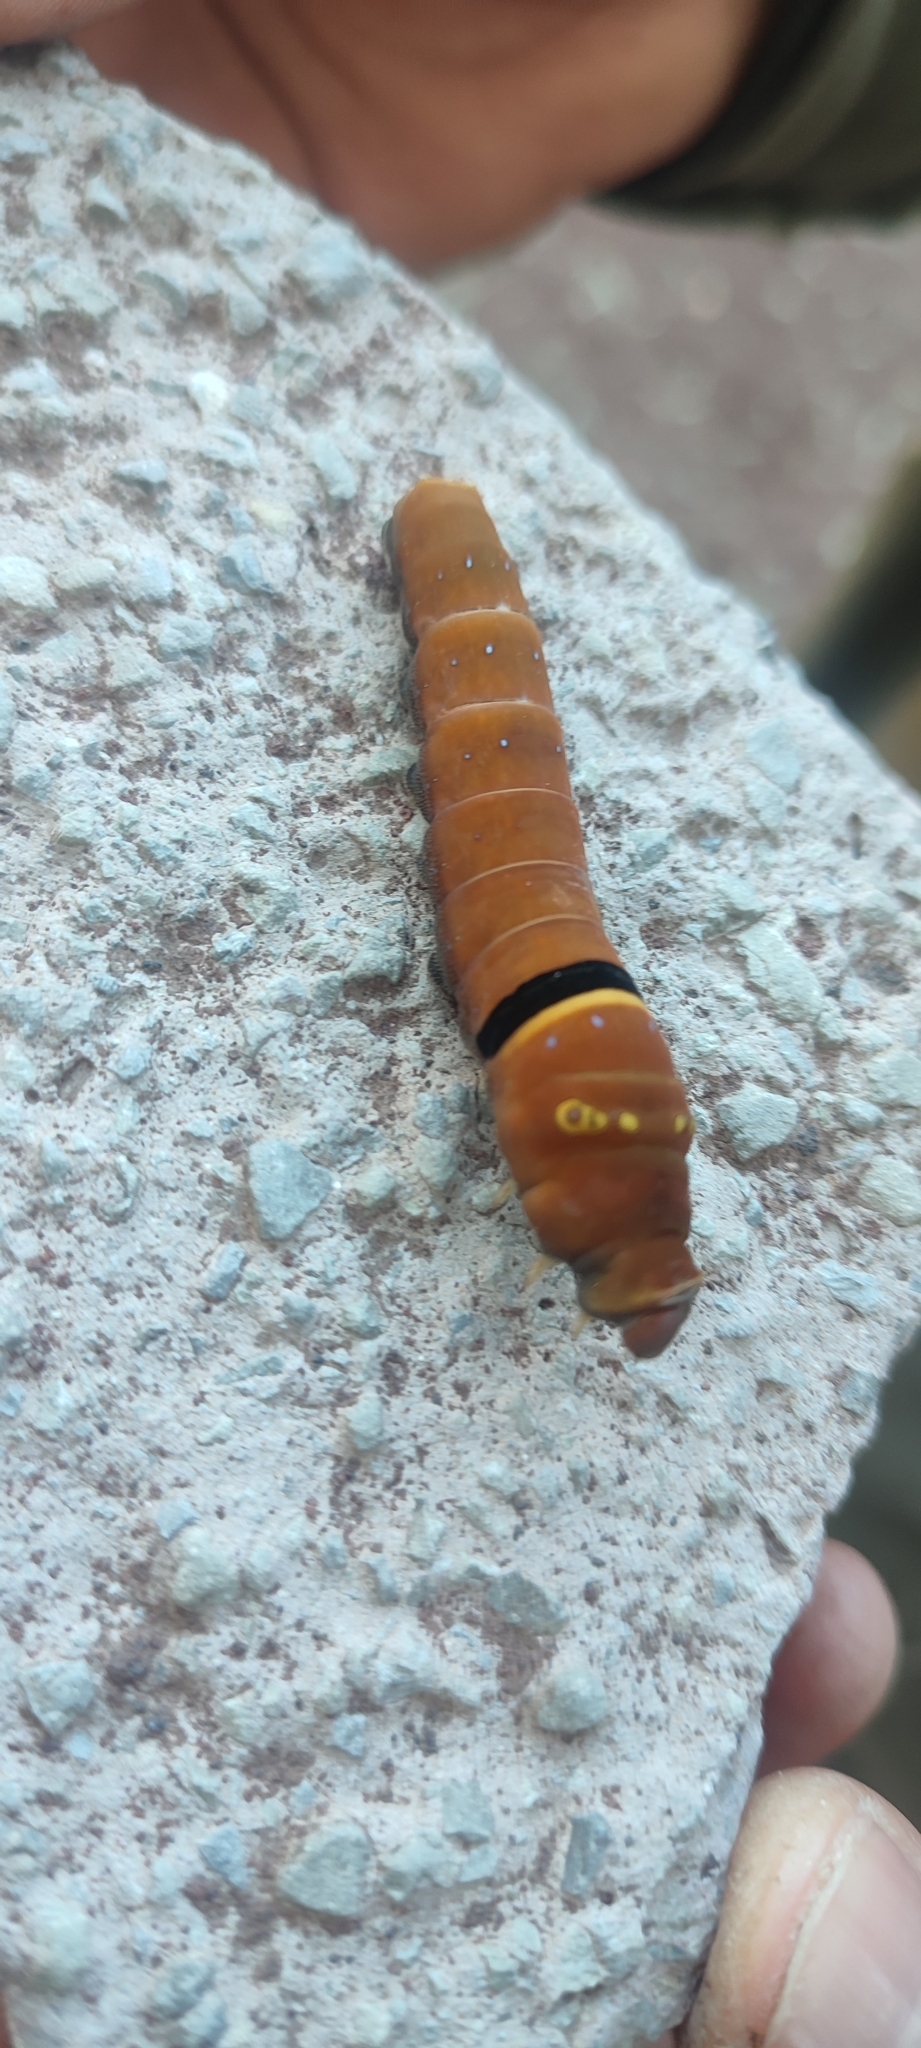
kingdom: Animalia
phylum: Arthropoda
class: Insecta
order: Lepidoptera
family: Papilionidae
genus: Papilio
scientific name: Papilio multicaudata
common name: Two-tailed tiger swallowtail
